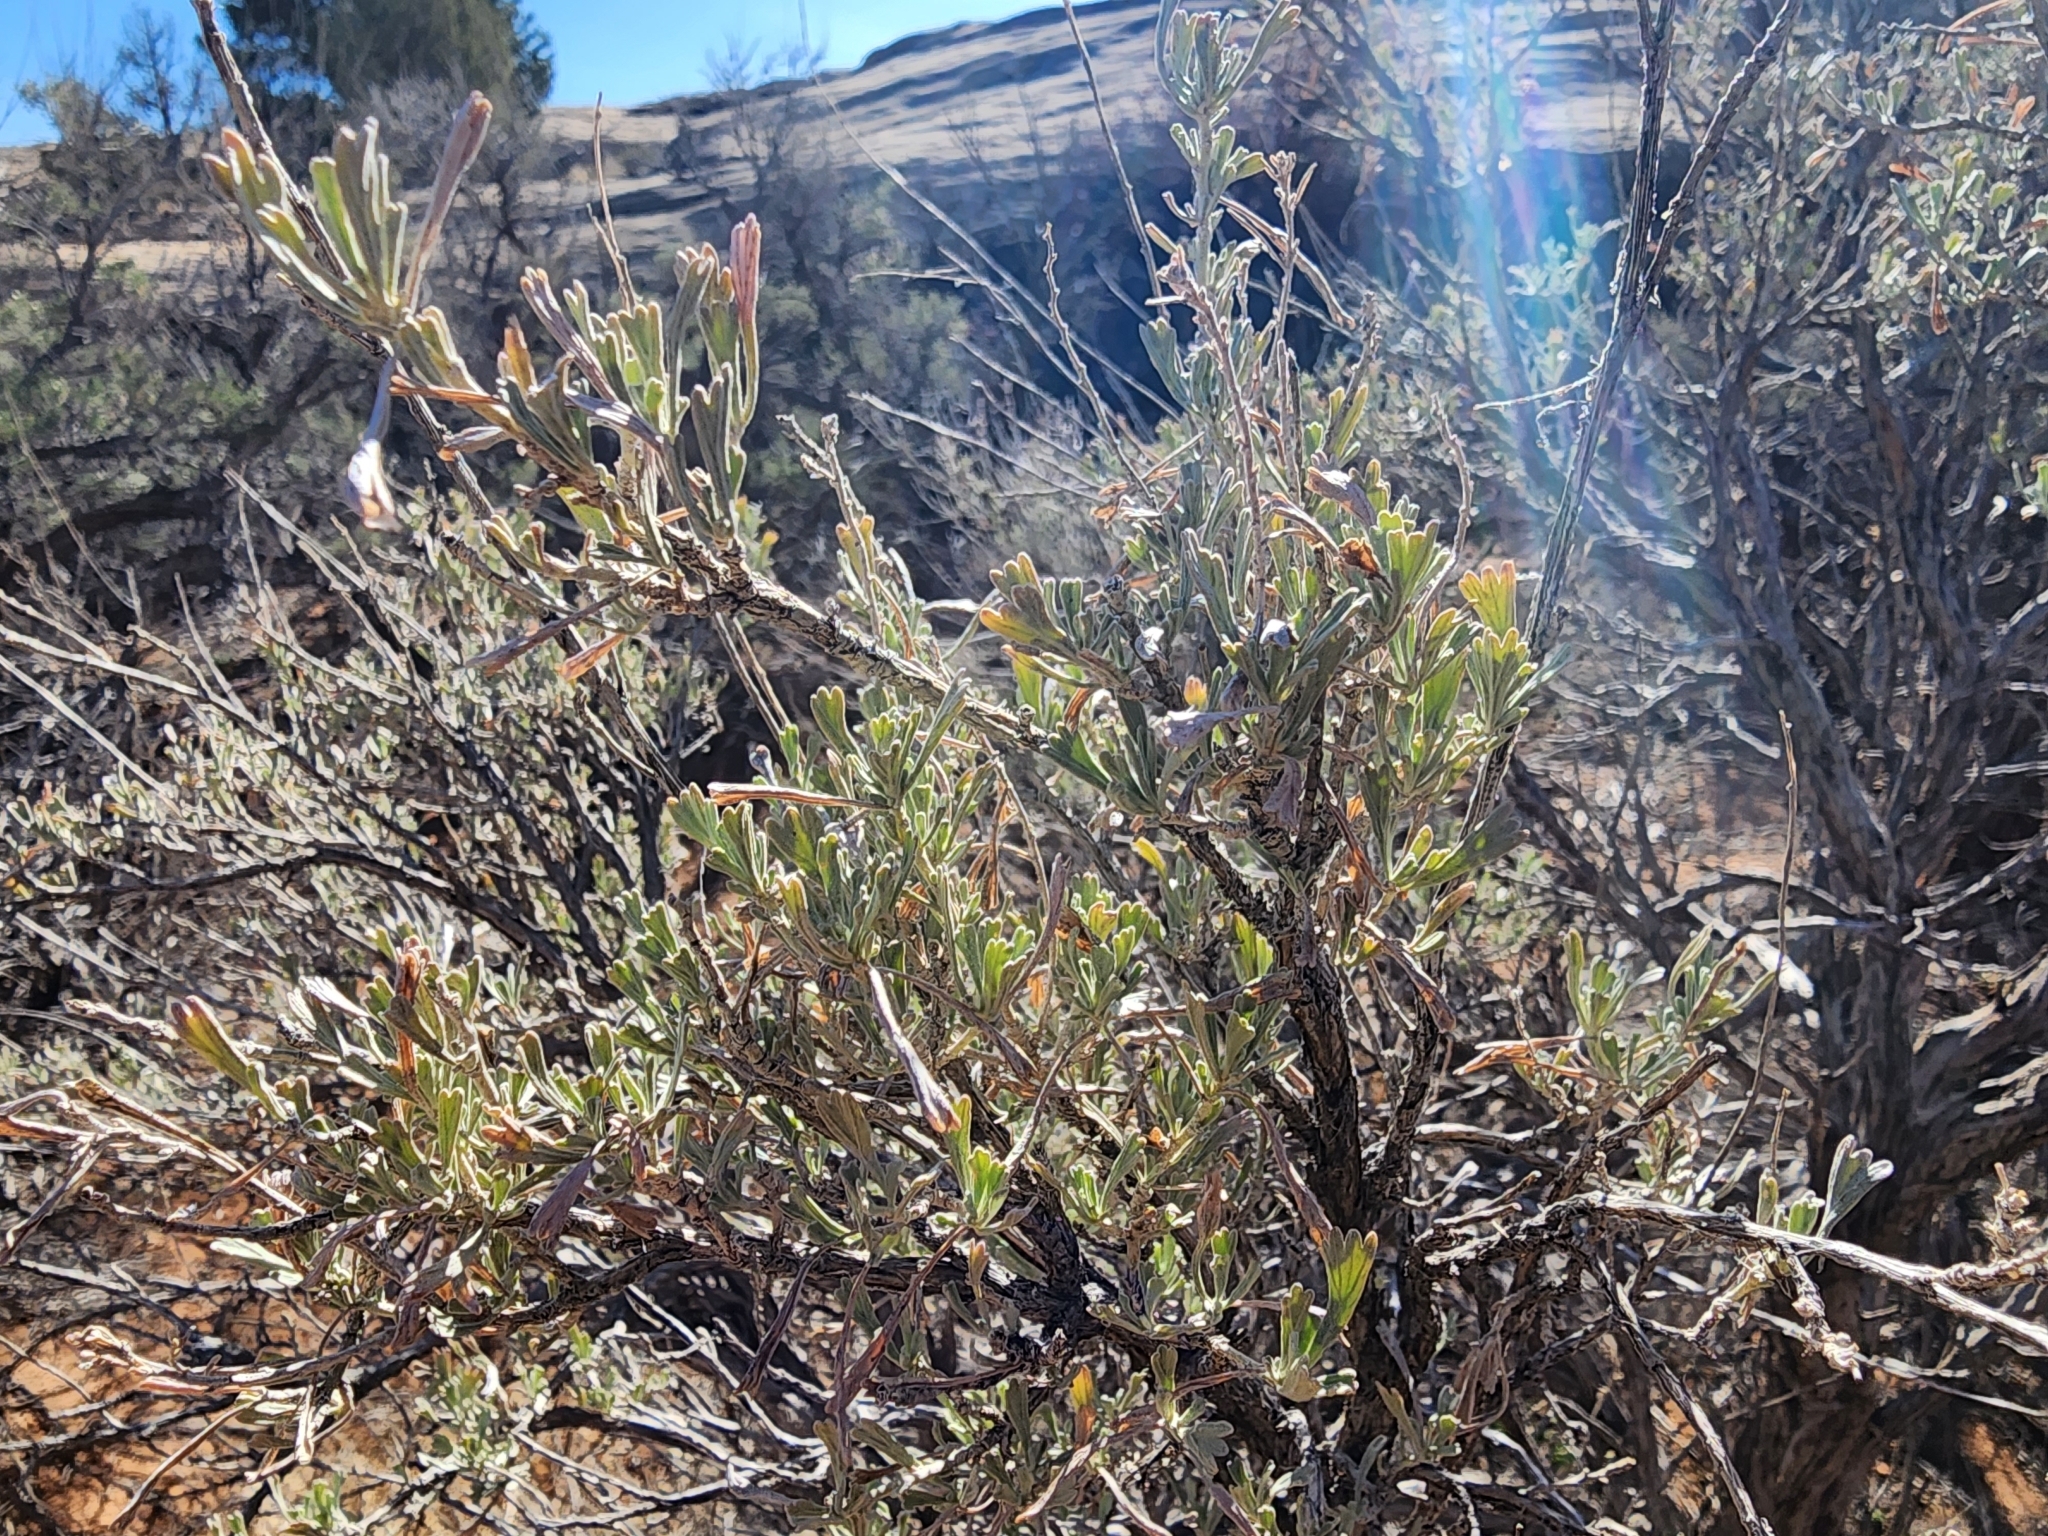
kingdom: Plantae
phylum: Tracheophyta
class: Magnoliopsida
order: Asterales
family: Asteraceae
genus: Artemisia
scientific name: Artemisia tridentata
